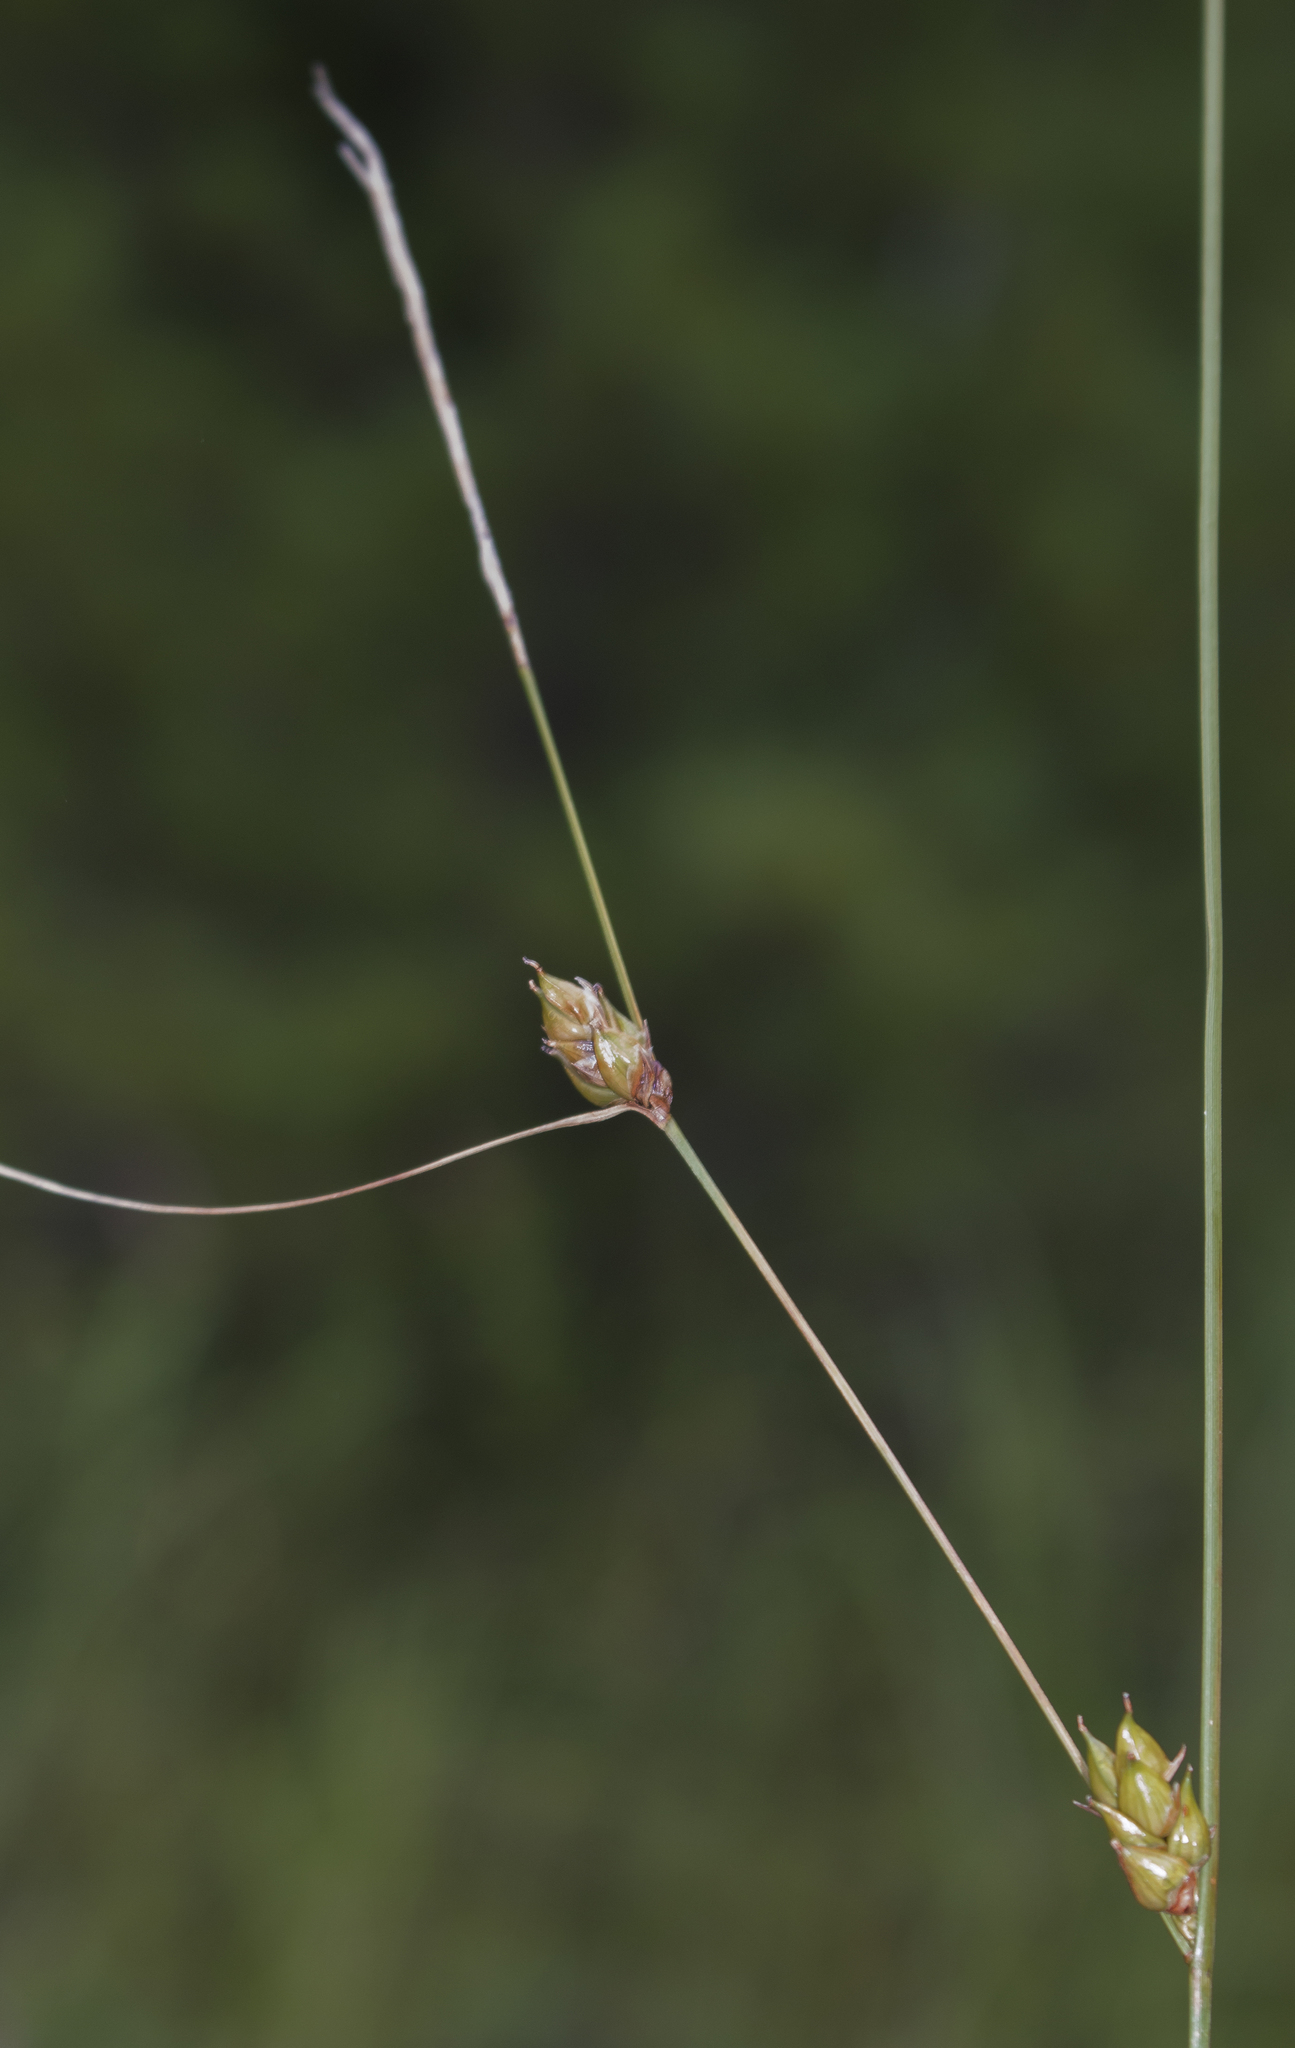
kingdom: Plantae
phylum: Tracheophyta
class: Liliopsida
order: Poales
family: Cyperaceae
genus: Carex
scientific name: Carex oligosperma
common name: Few-seed sedge
